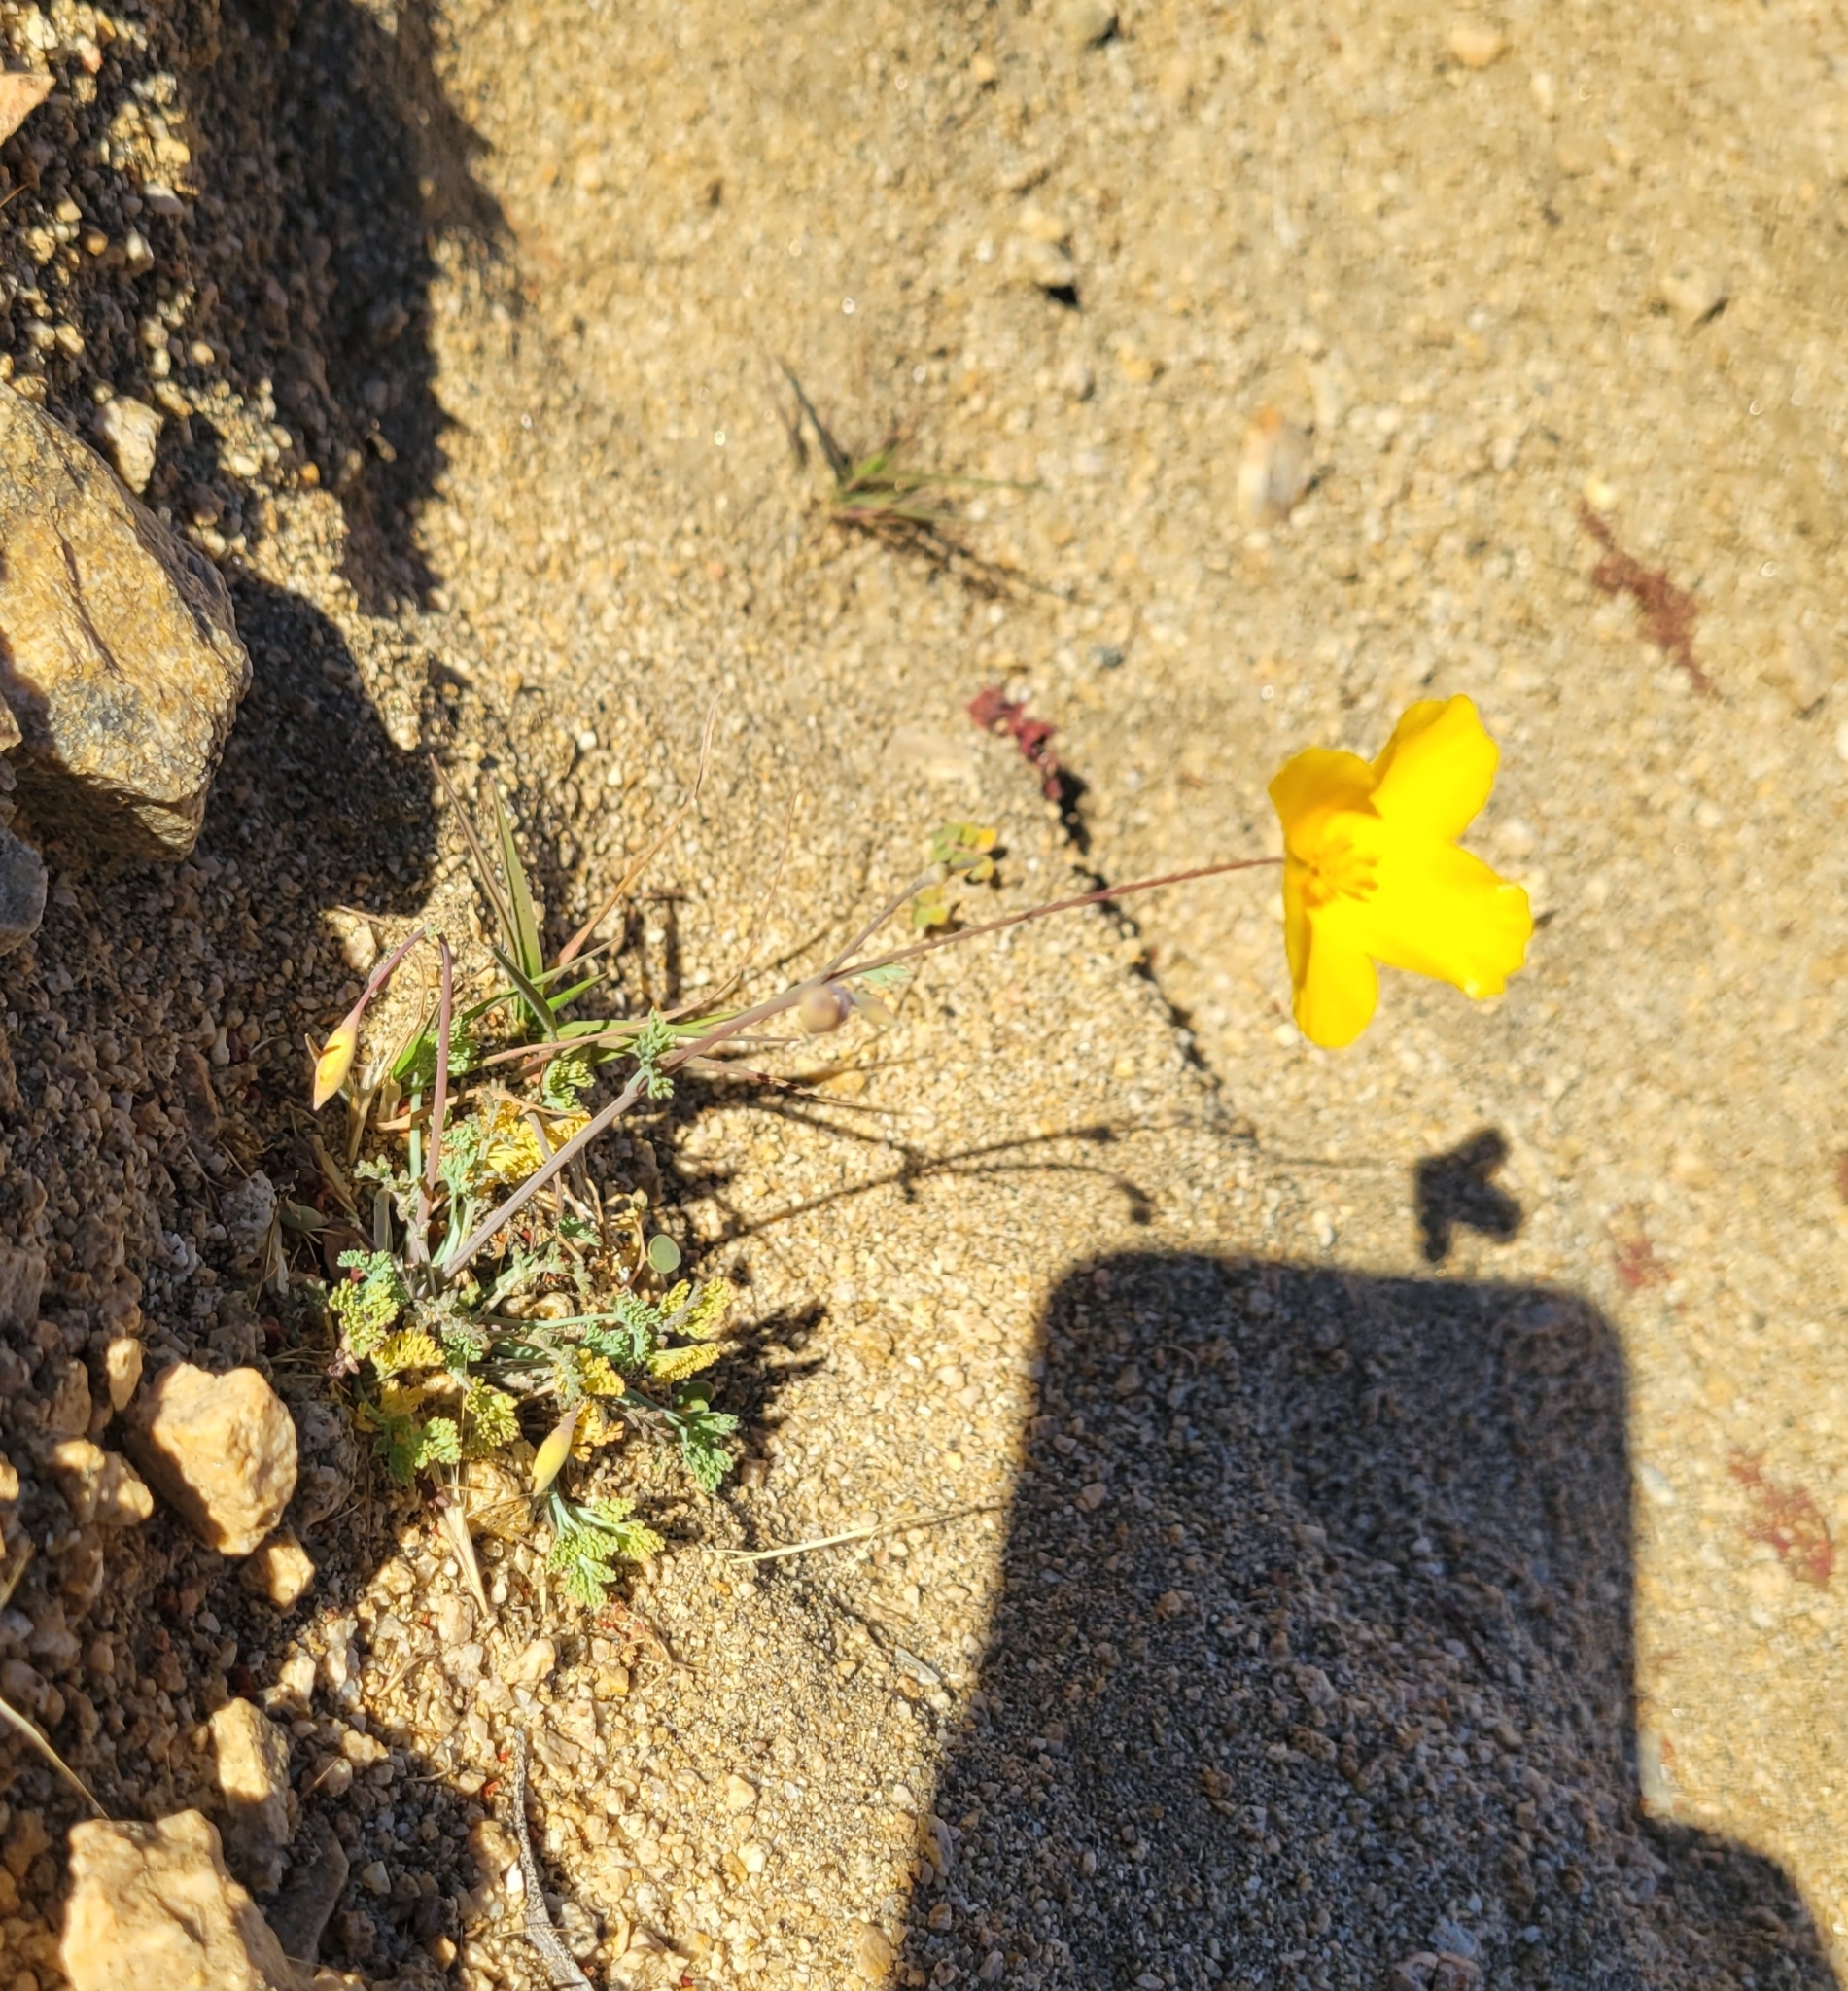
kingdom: Plantae
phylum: Tracheophyta
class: Magnoliopsida
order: Ranunculales
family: Papaveraceae
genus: Eschscholzia
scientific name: Eschscholzia androuxii
